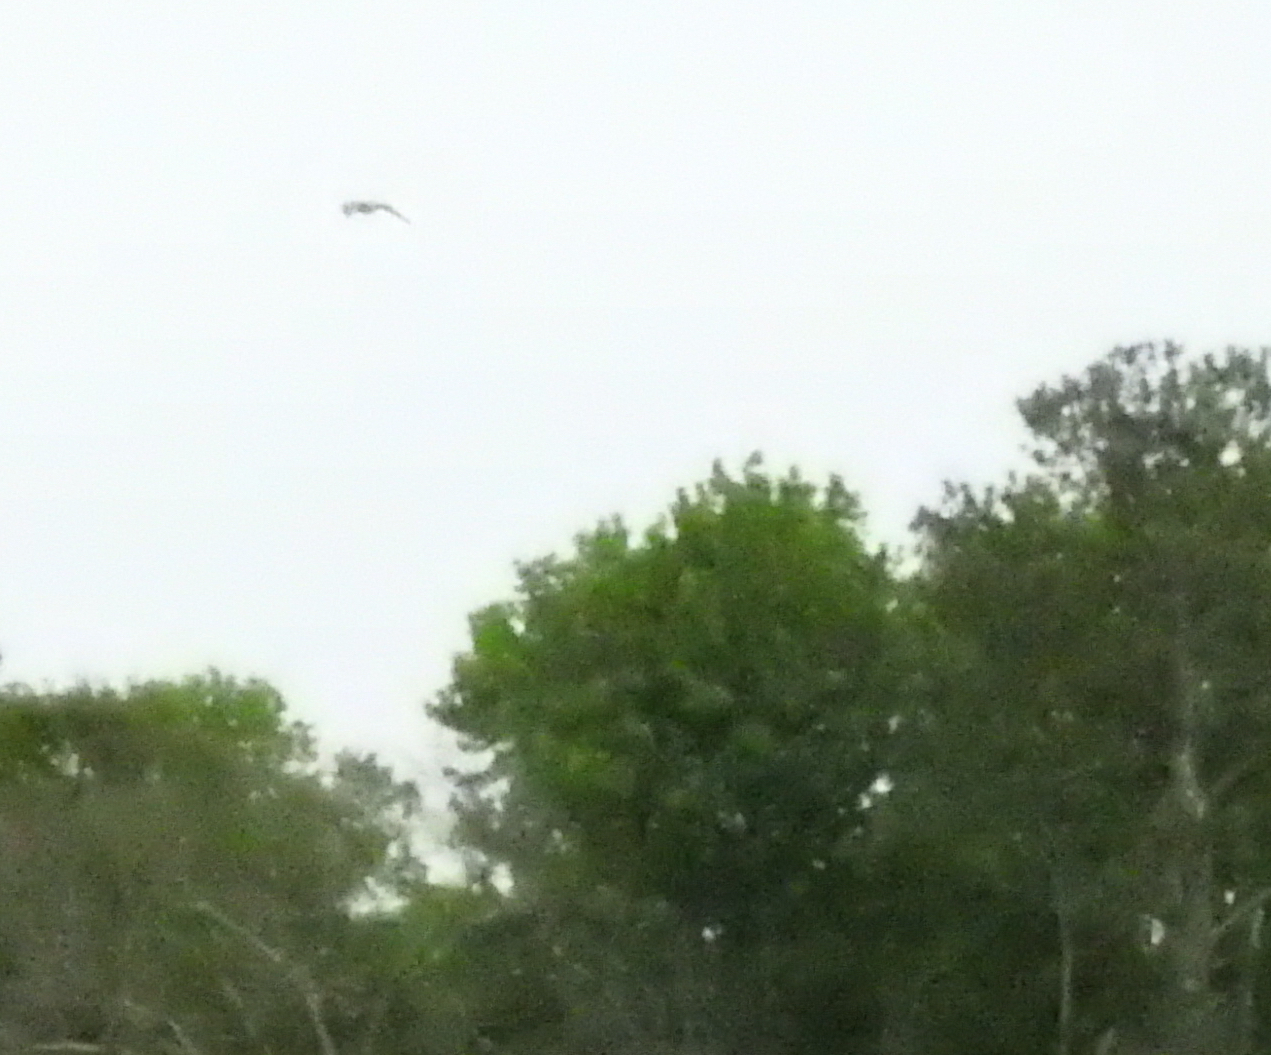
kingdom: Animalia
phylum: Chordata
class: Aves
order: Charadriiformes
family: Charadriidae
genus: Charadrius
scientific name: Charadrius vociferus
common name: Killdeer
